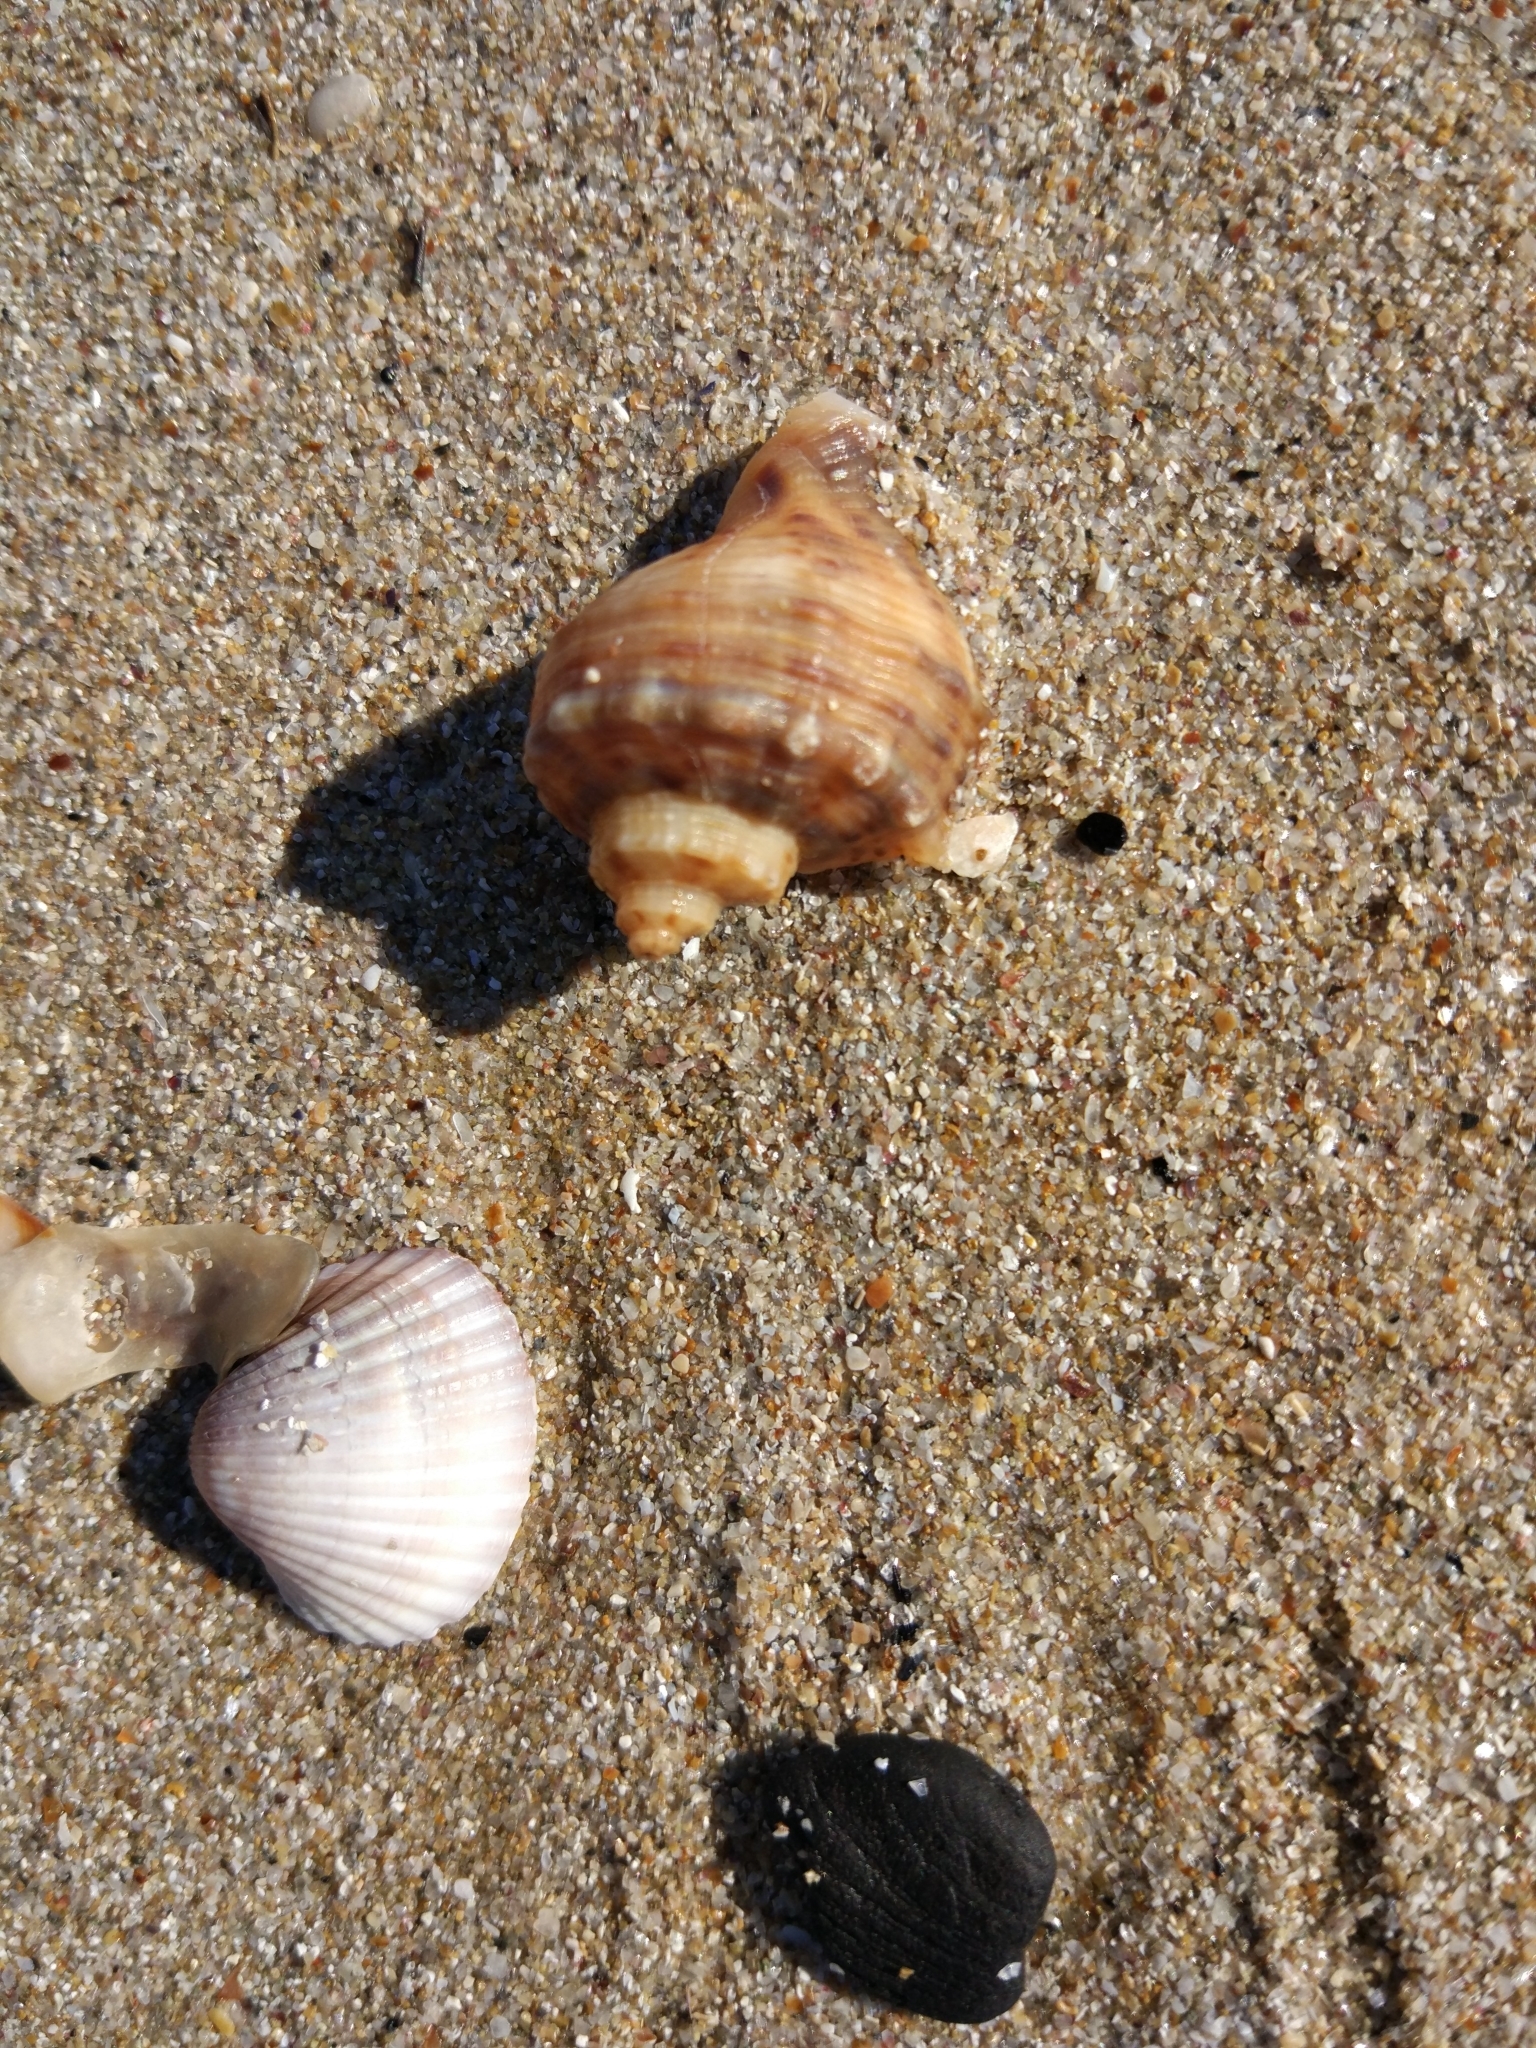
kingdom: Animalia
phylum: Mollusca
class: Gastropoda
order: Neogastropoda
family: Muricidae
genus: Rapana
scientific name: Rapana venosa
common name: Veined rapa whelk
